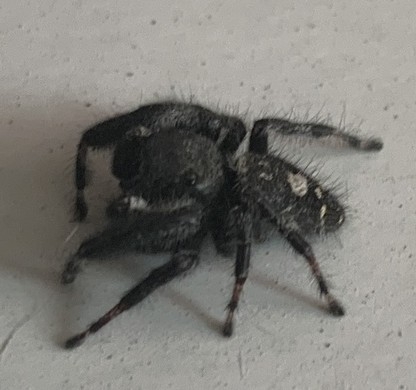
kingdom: Animalia
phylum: Arthropoda
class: Arachnida
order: Araneae
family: Salticidae
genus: Phidippus
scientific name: Phidippus audax
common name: Bold jumper
